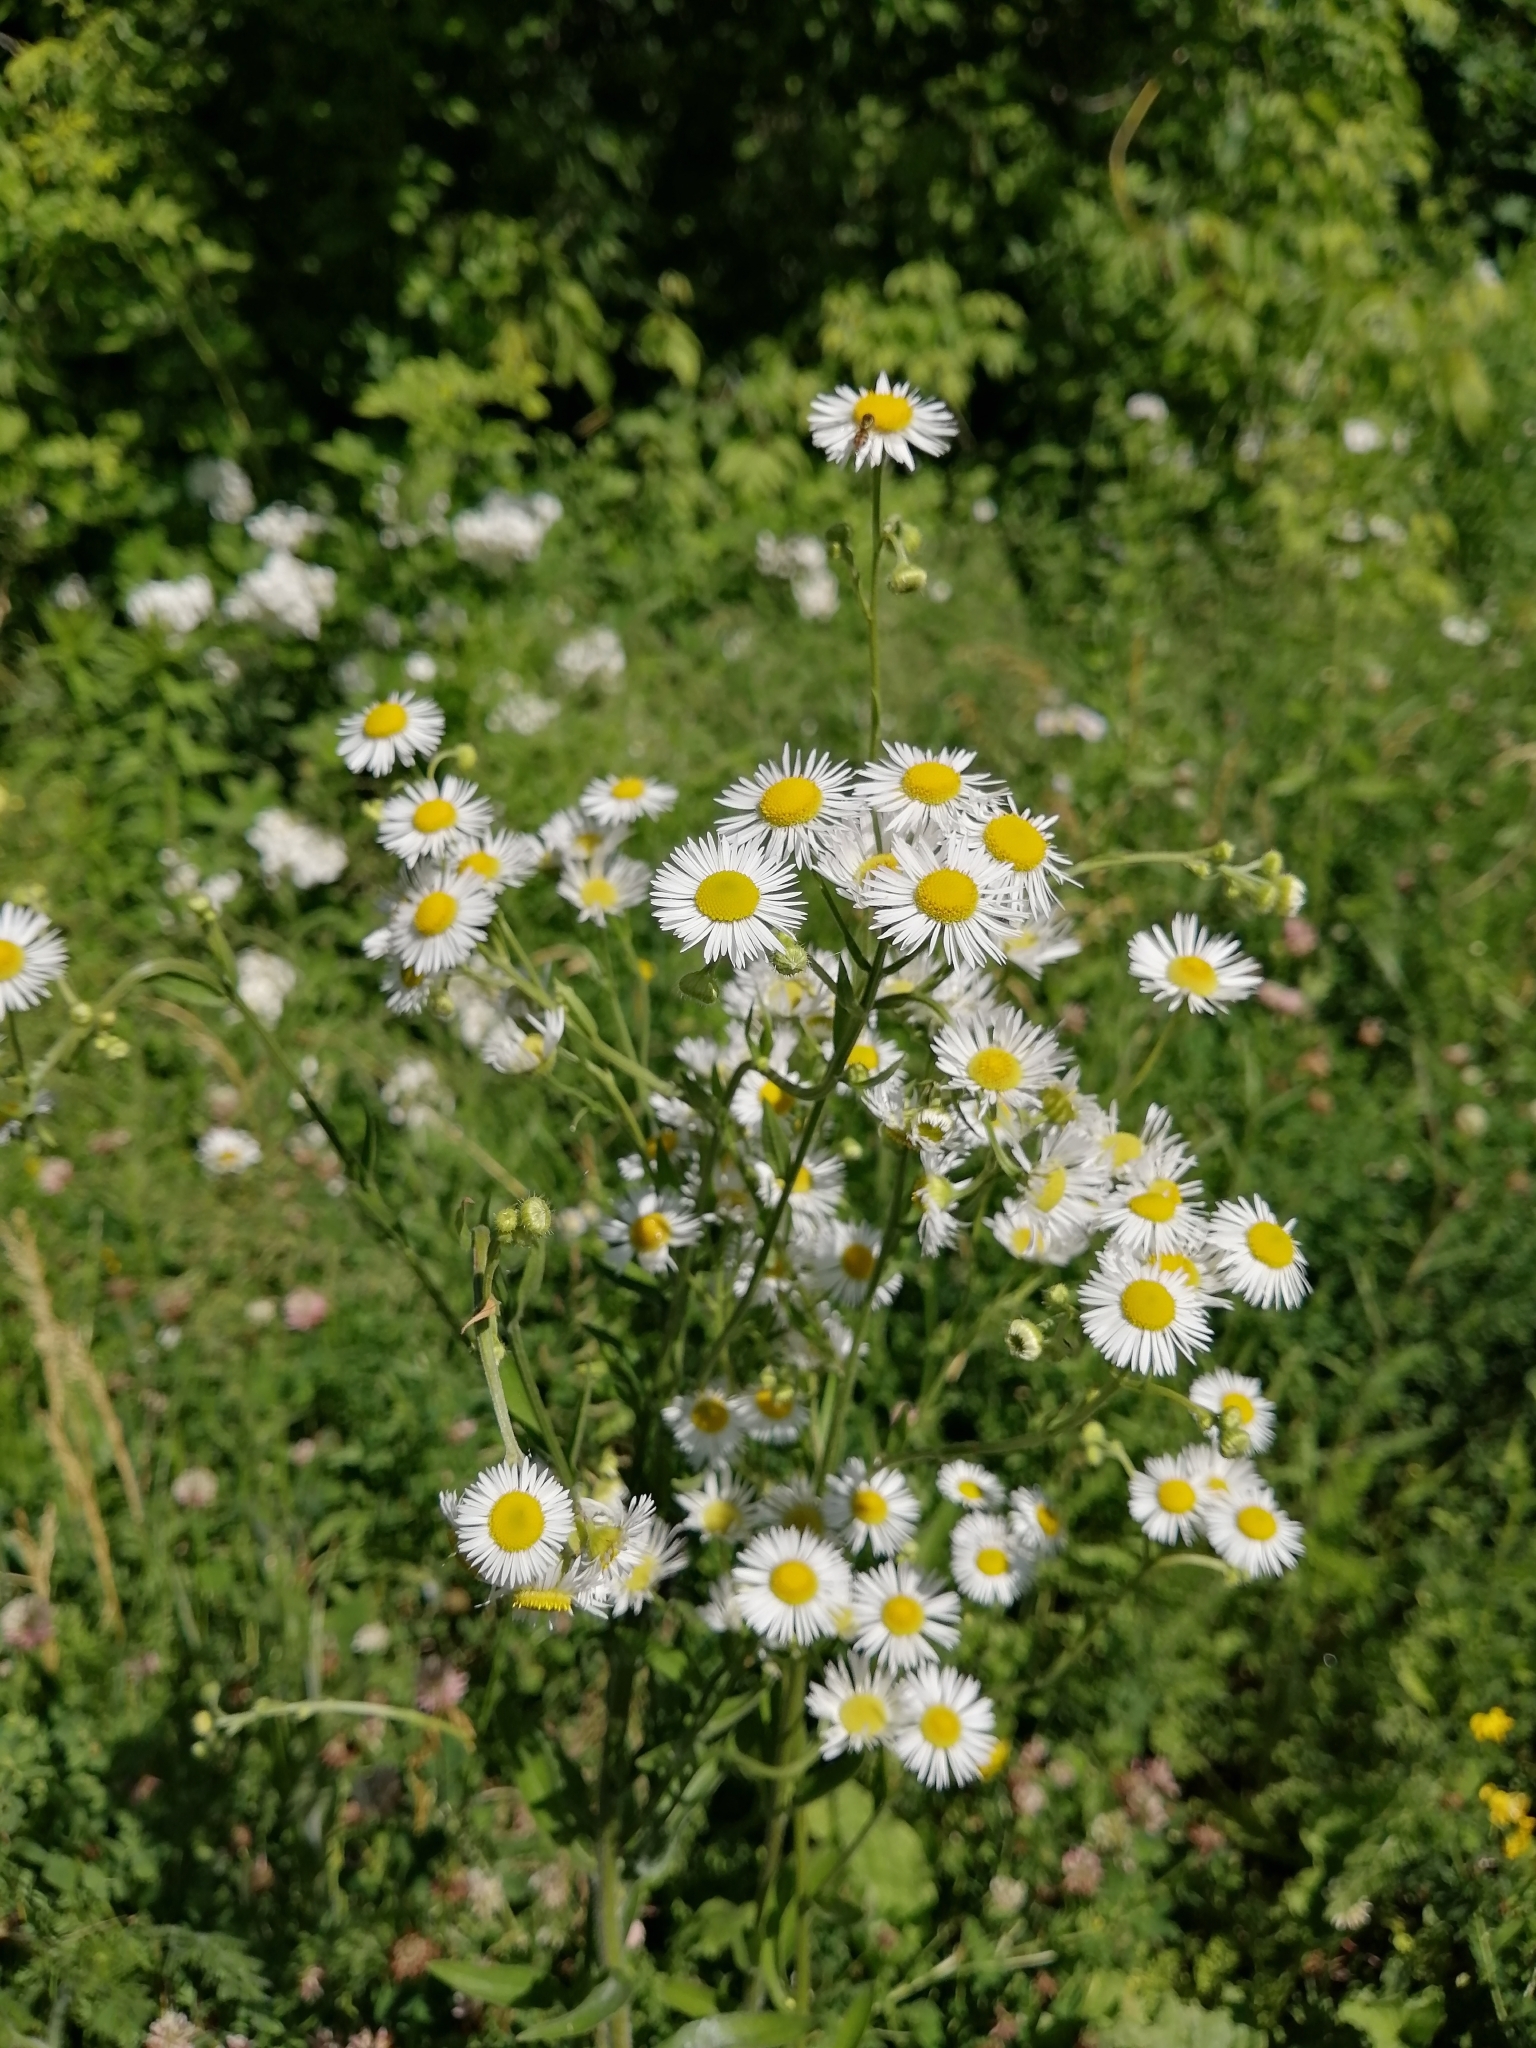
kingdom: Plantae
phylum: Tracheophyta
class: Magnoliopsida
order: Asterales
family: Asteraceae
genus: Erigeron
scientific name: Erigeron annuus
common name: Tall fleabane
